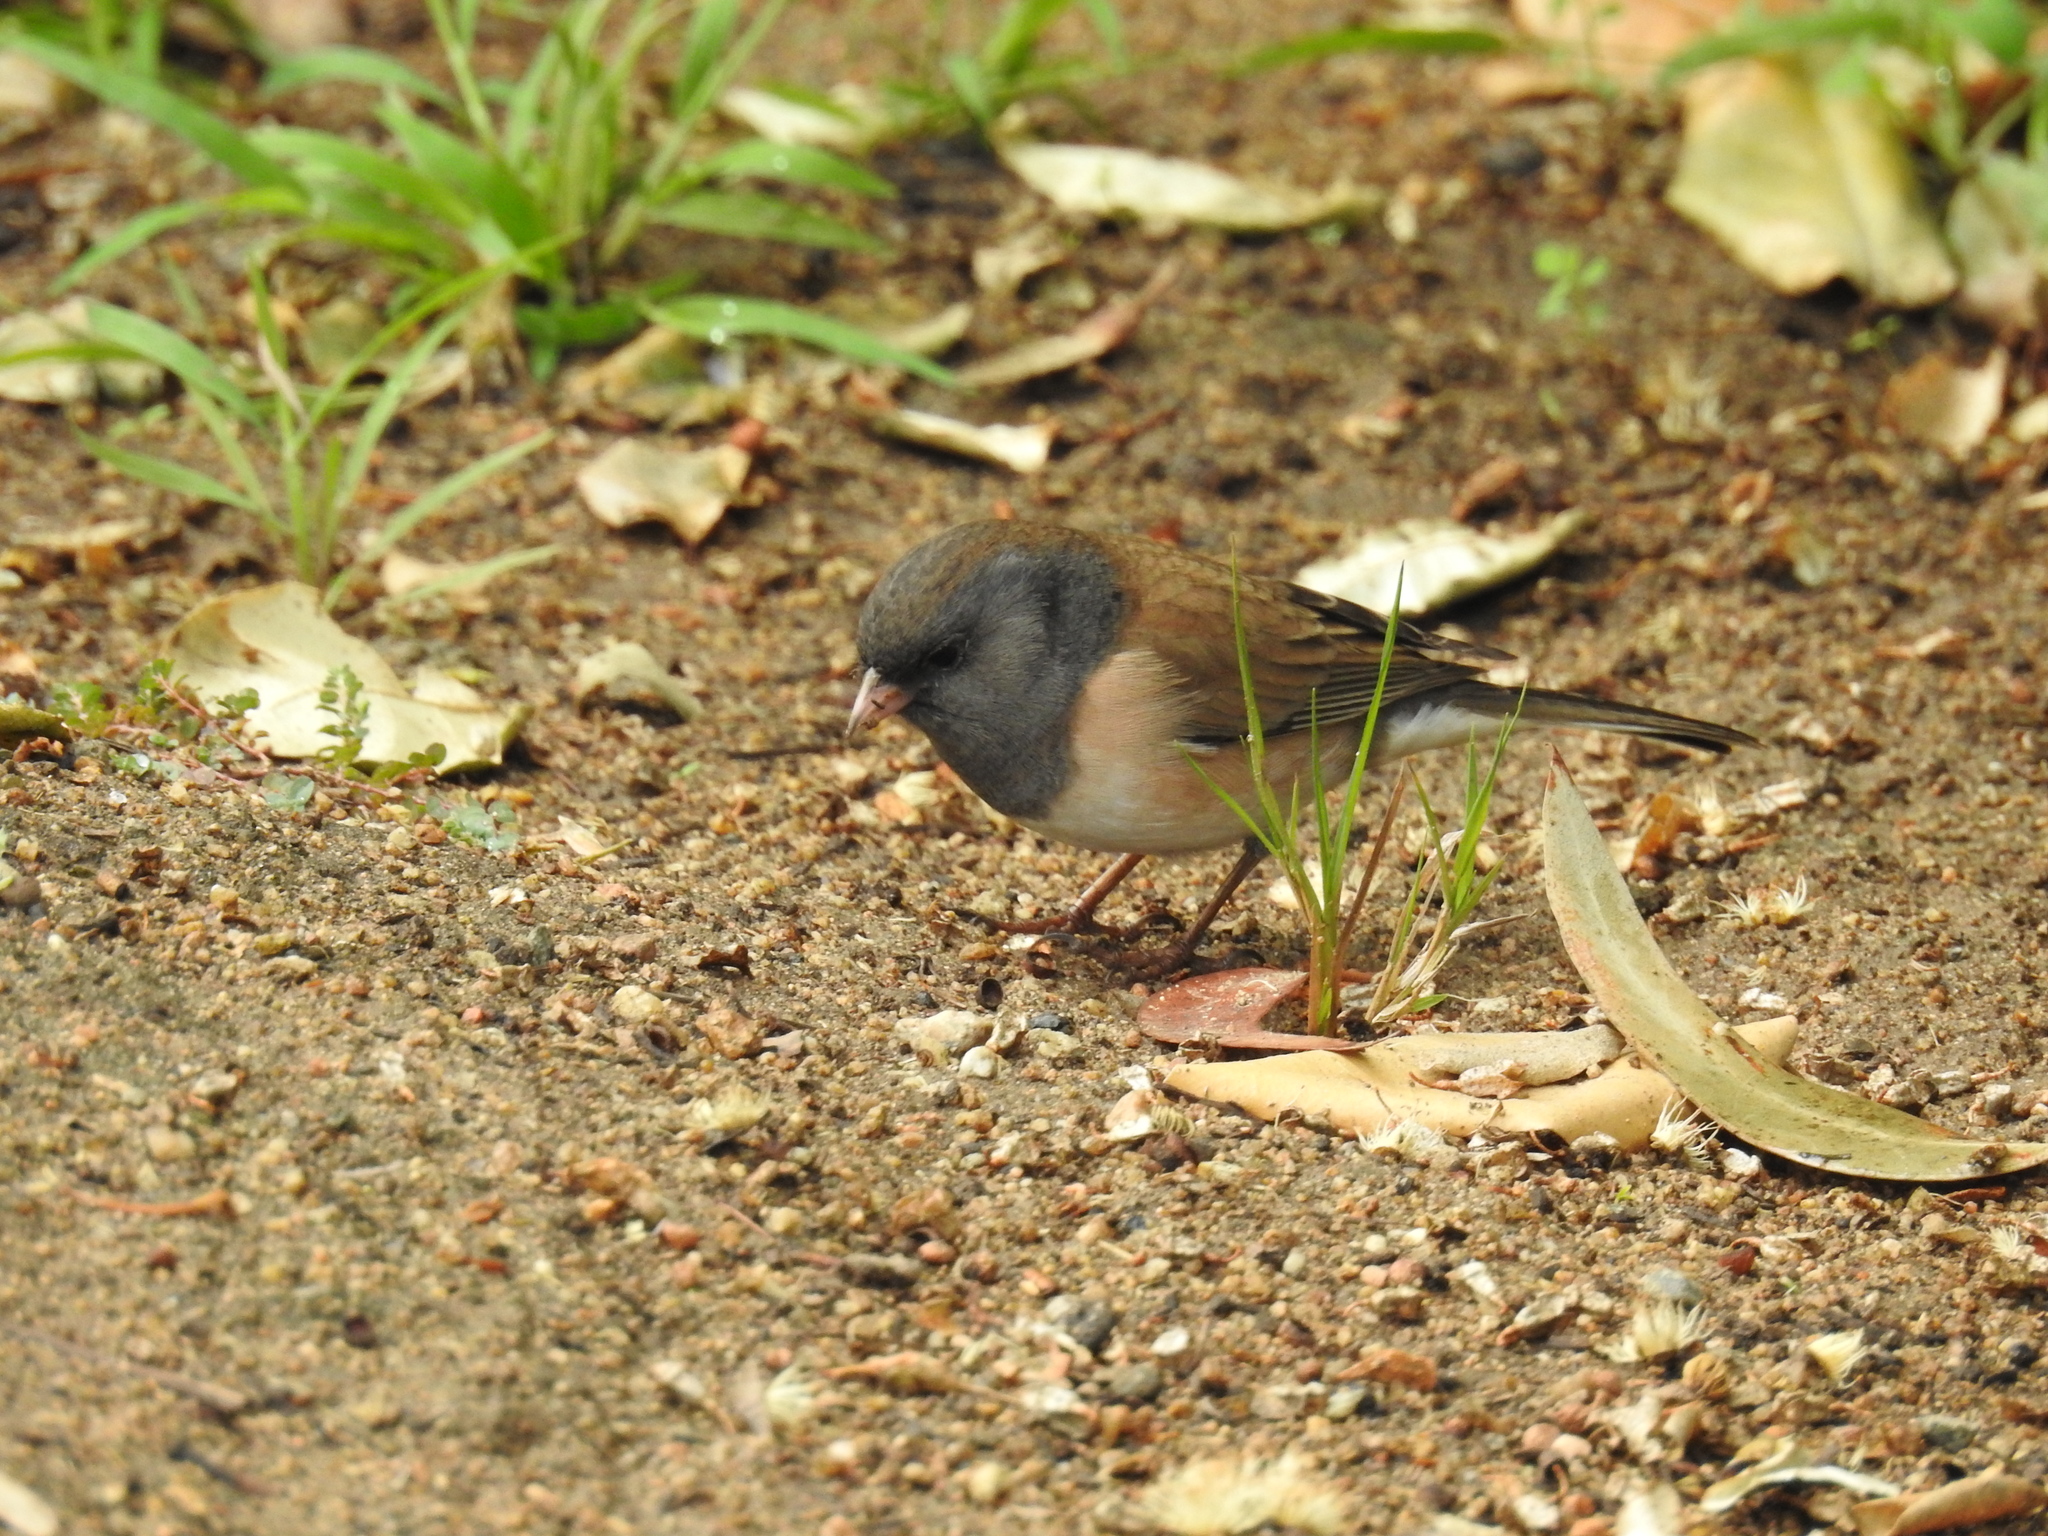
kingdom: Animalia
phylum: Chordata
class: Aves
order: Passeriformes
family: Passerellidae
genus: Junco
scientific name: Junco hyemalis
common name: Dark-eyed junco
